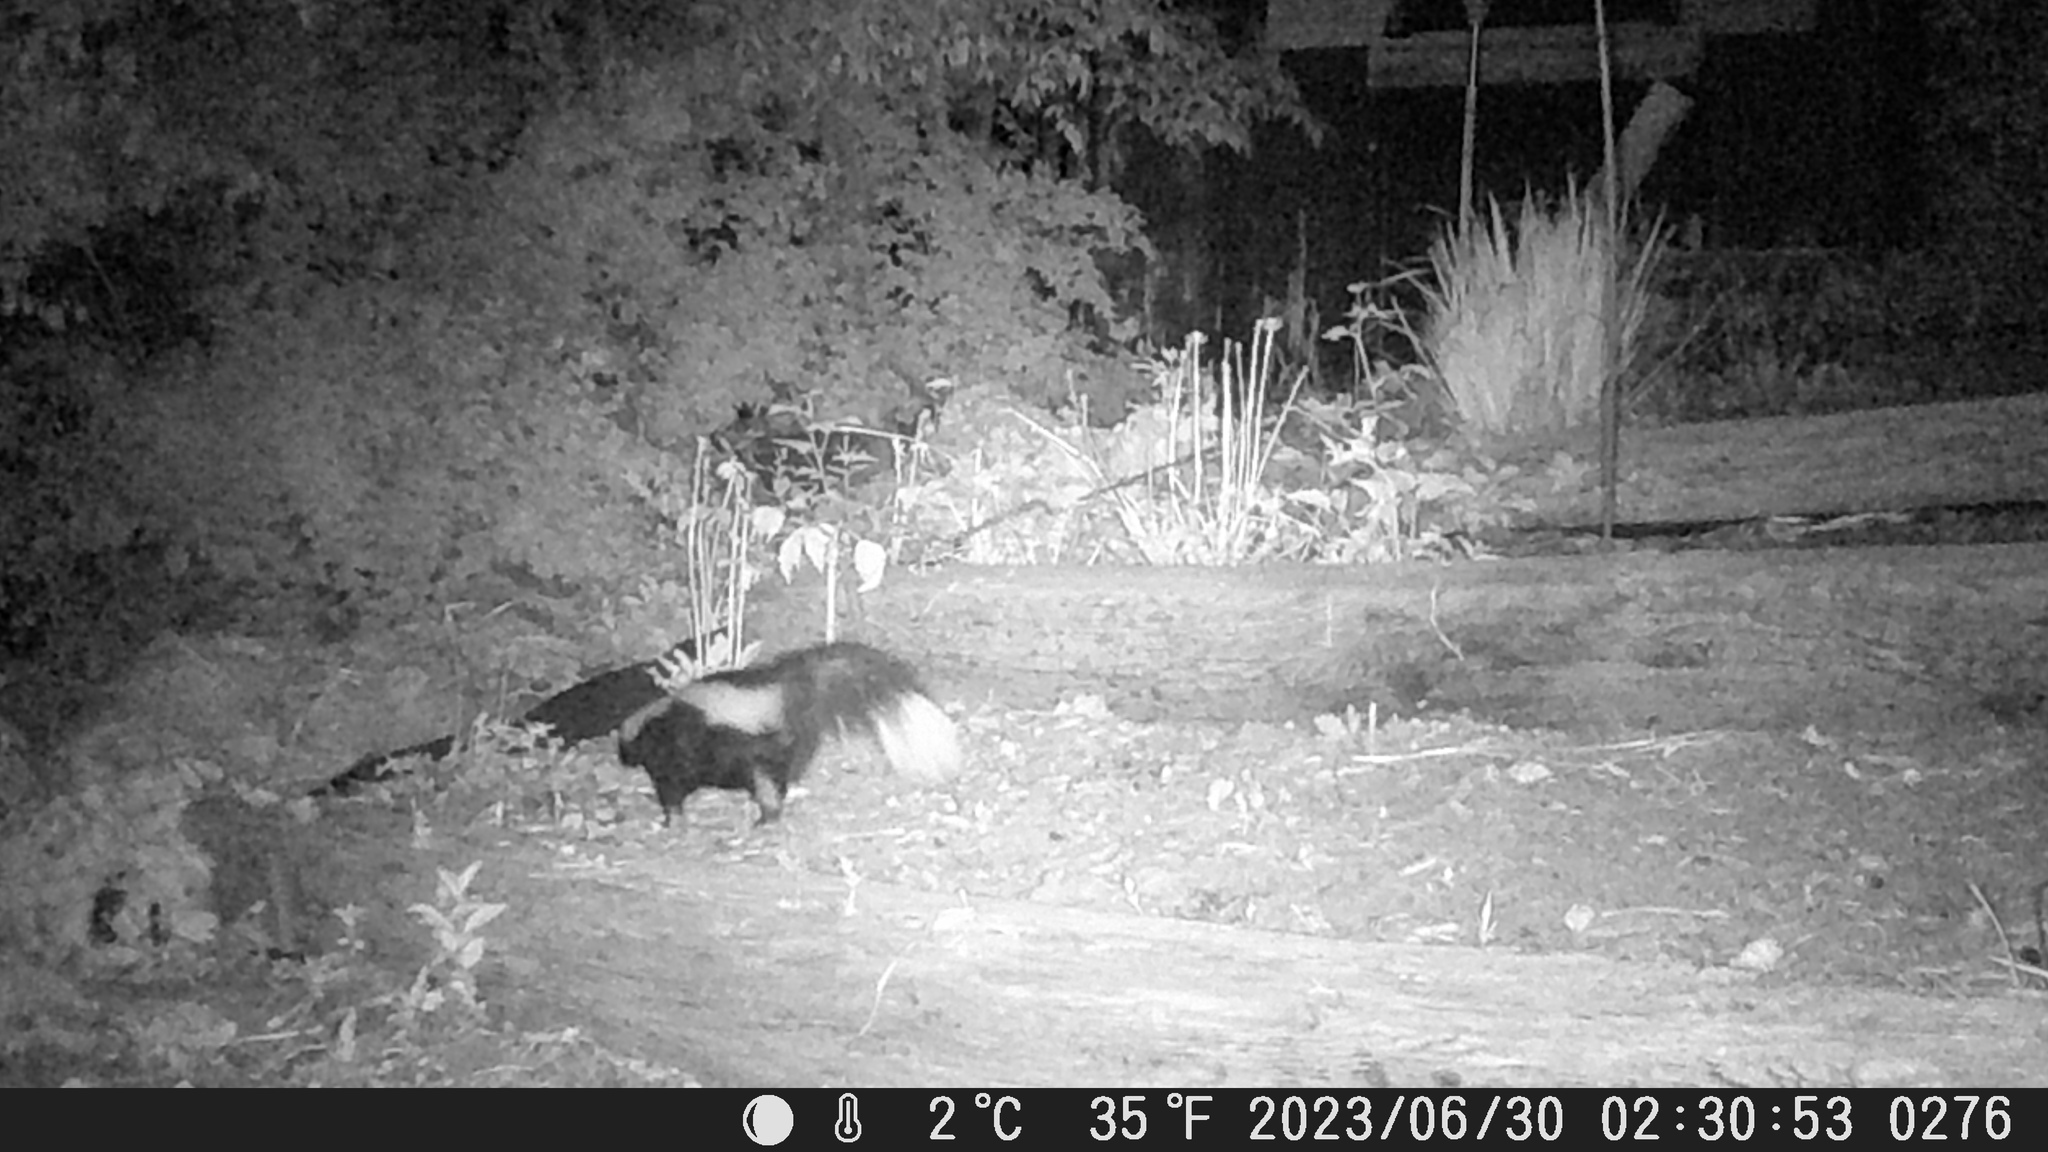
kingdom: Animalia
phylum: Chordata
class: Mammalia
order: Carnivora
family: Mephitidae
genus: Mephitis
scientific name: Mephitis mephitis
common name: Striped skunk
